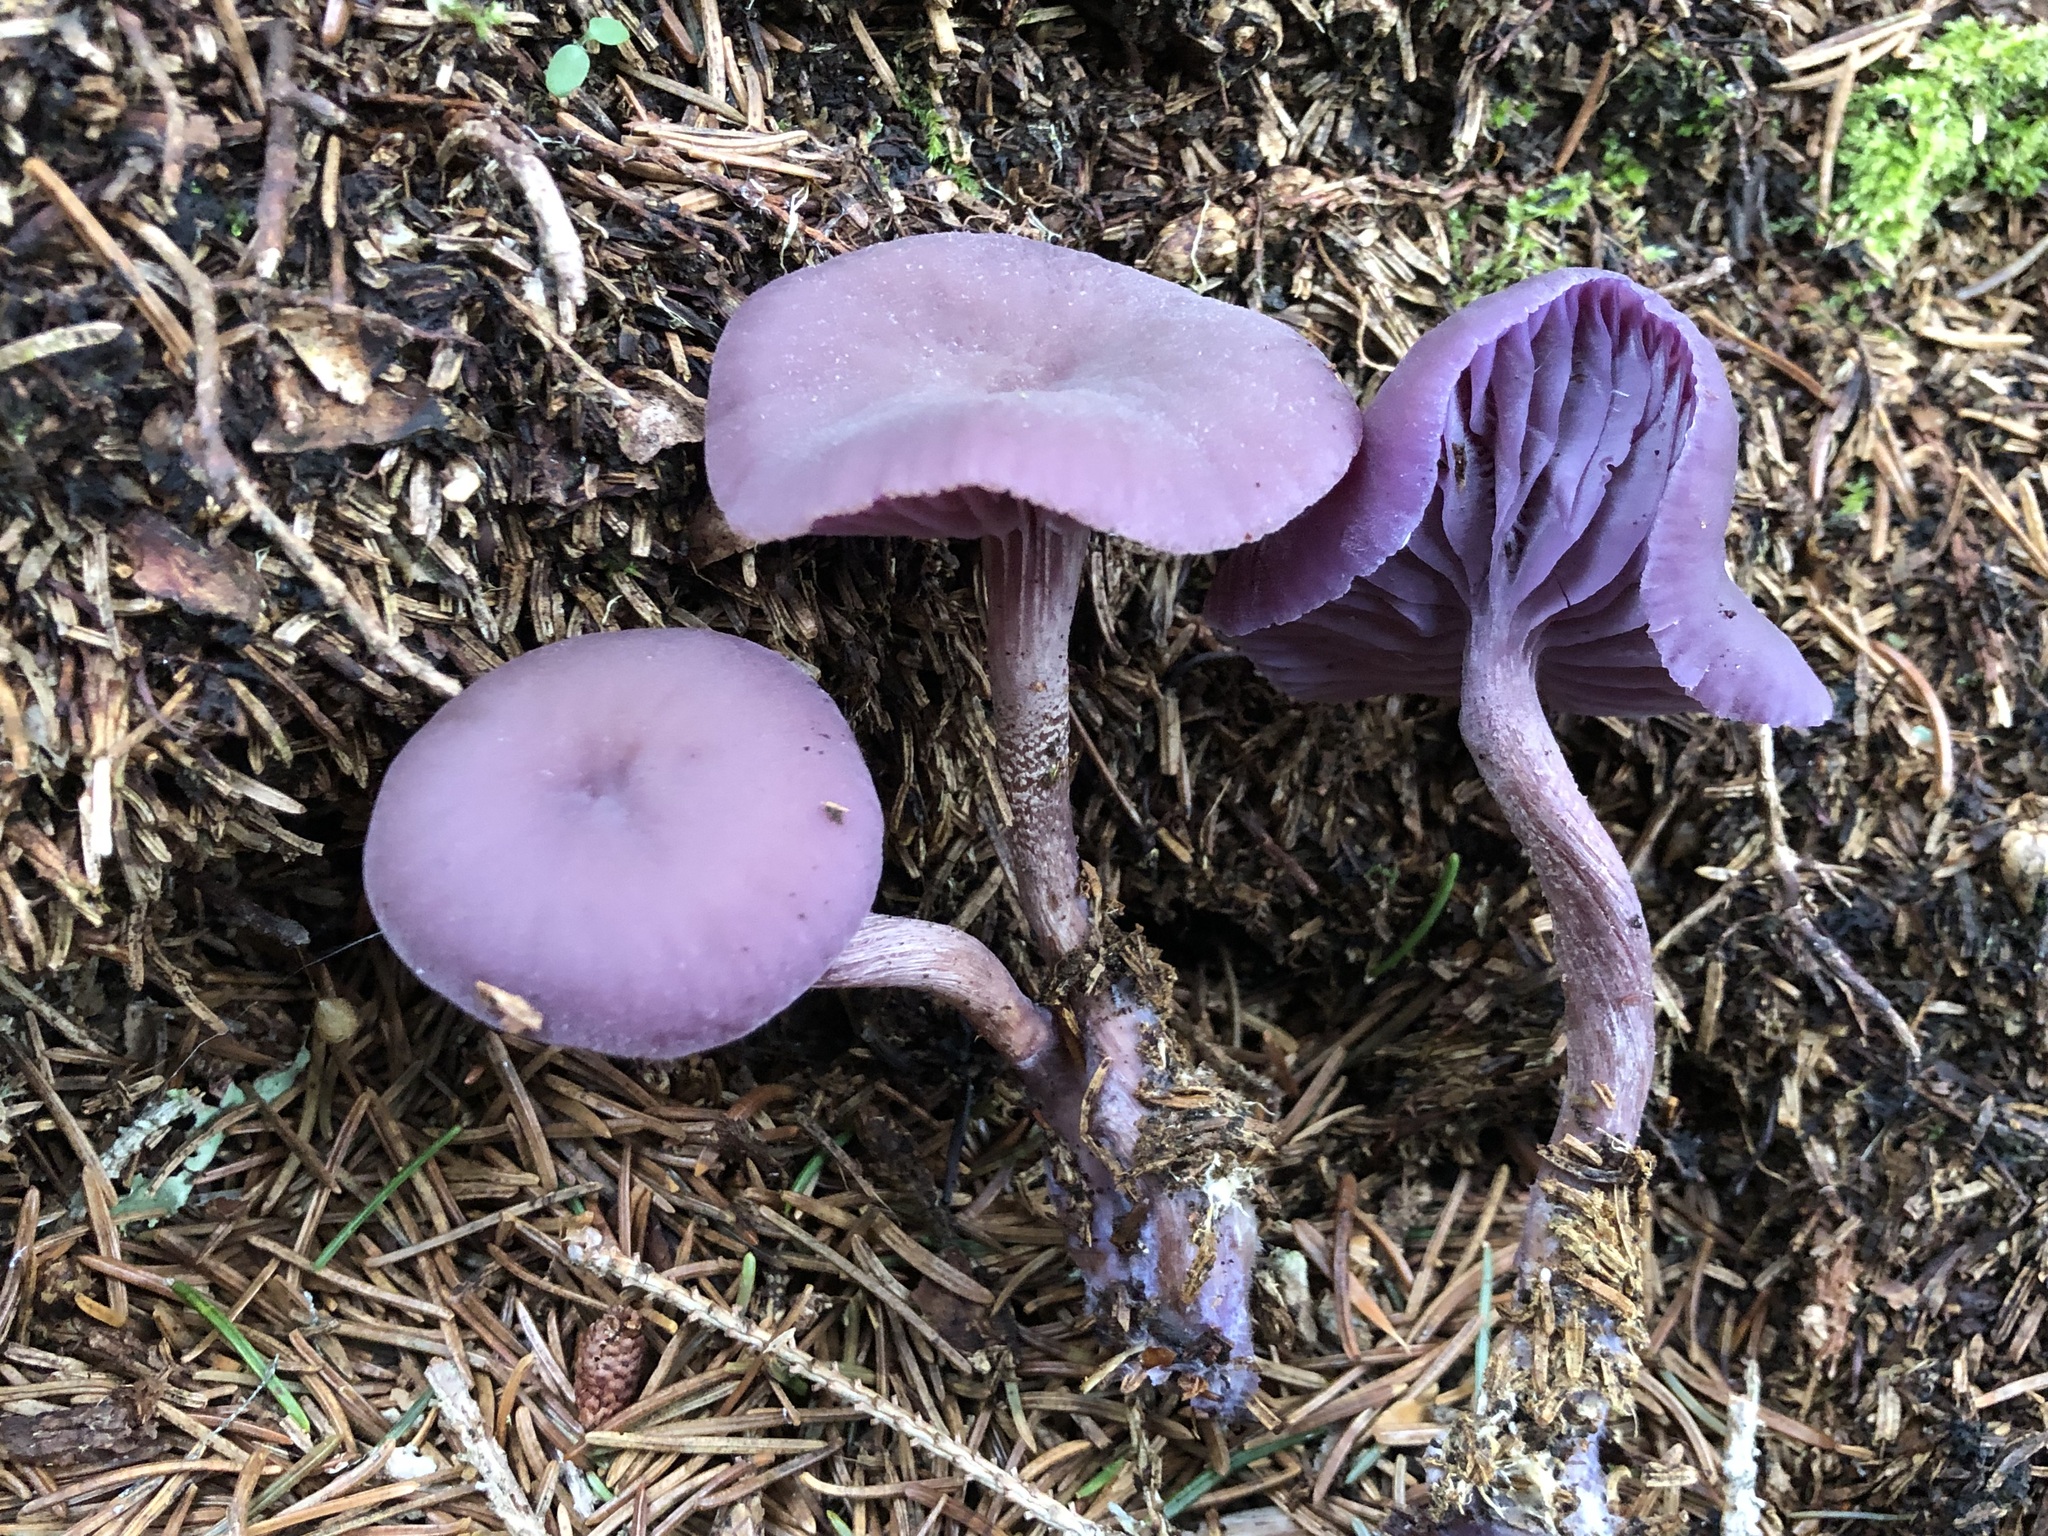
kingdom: Fungi
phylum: Basidiomycota
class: Agaricomycetes
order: Agaricales
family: Hydnangiaceae
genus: Laccaria
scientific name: Laccaria amethystina
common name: Amethyst deceiver
